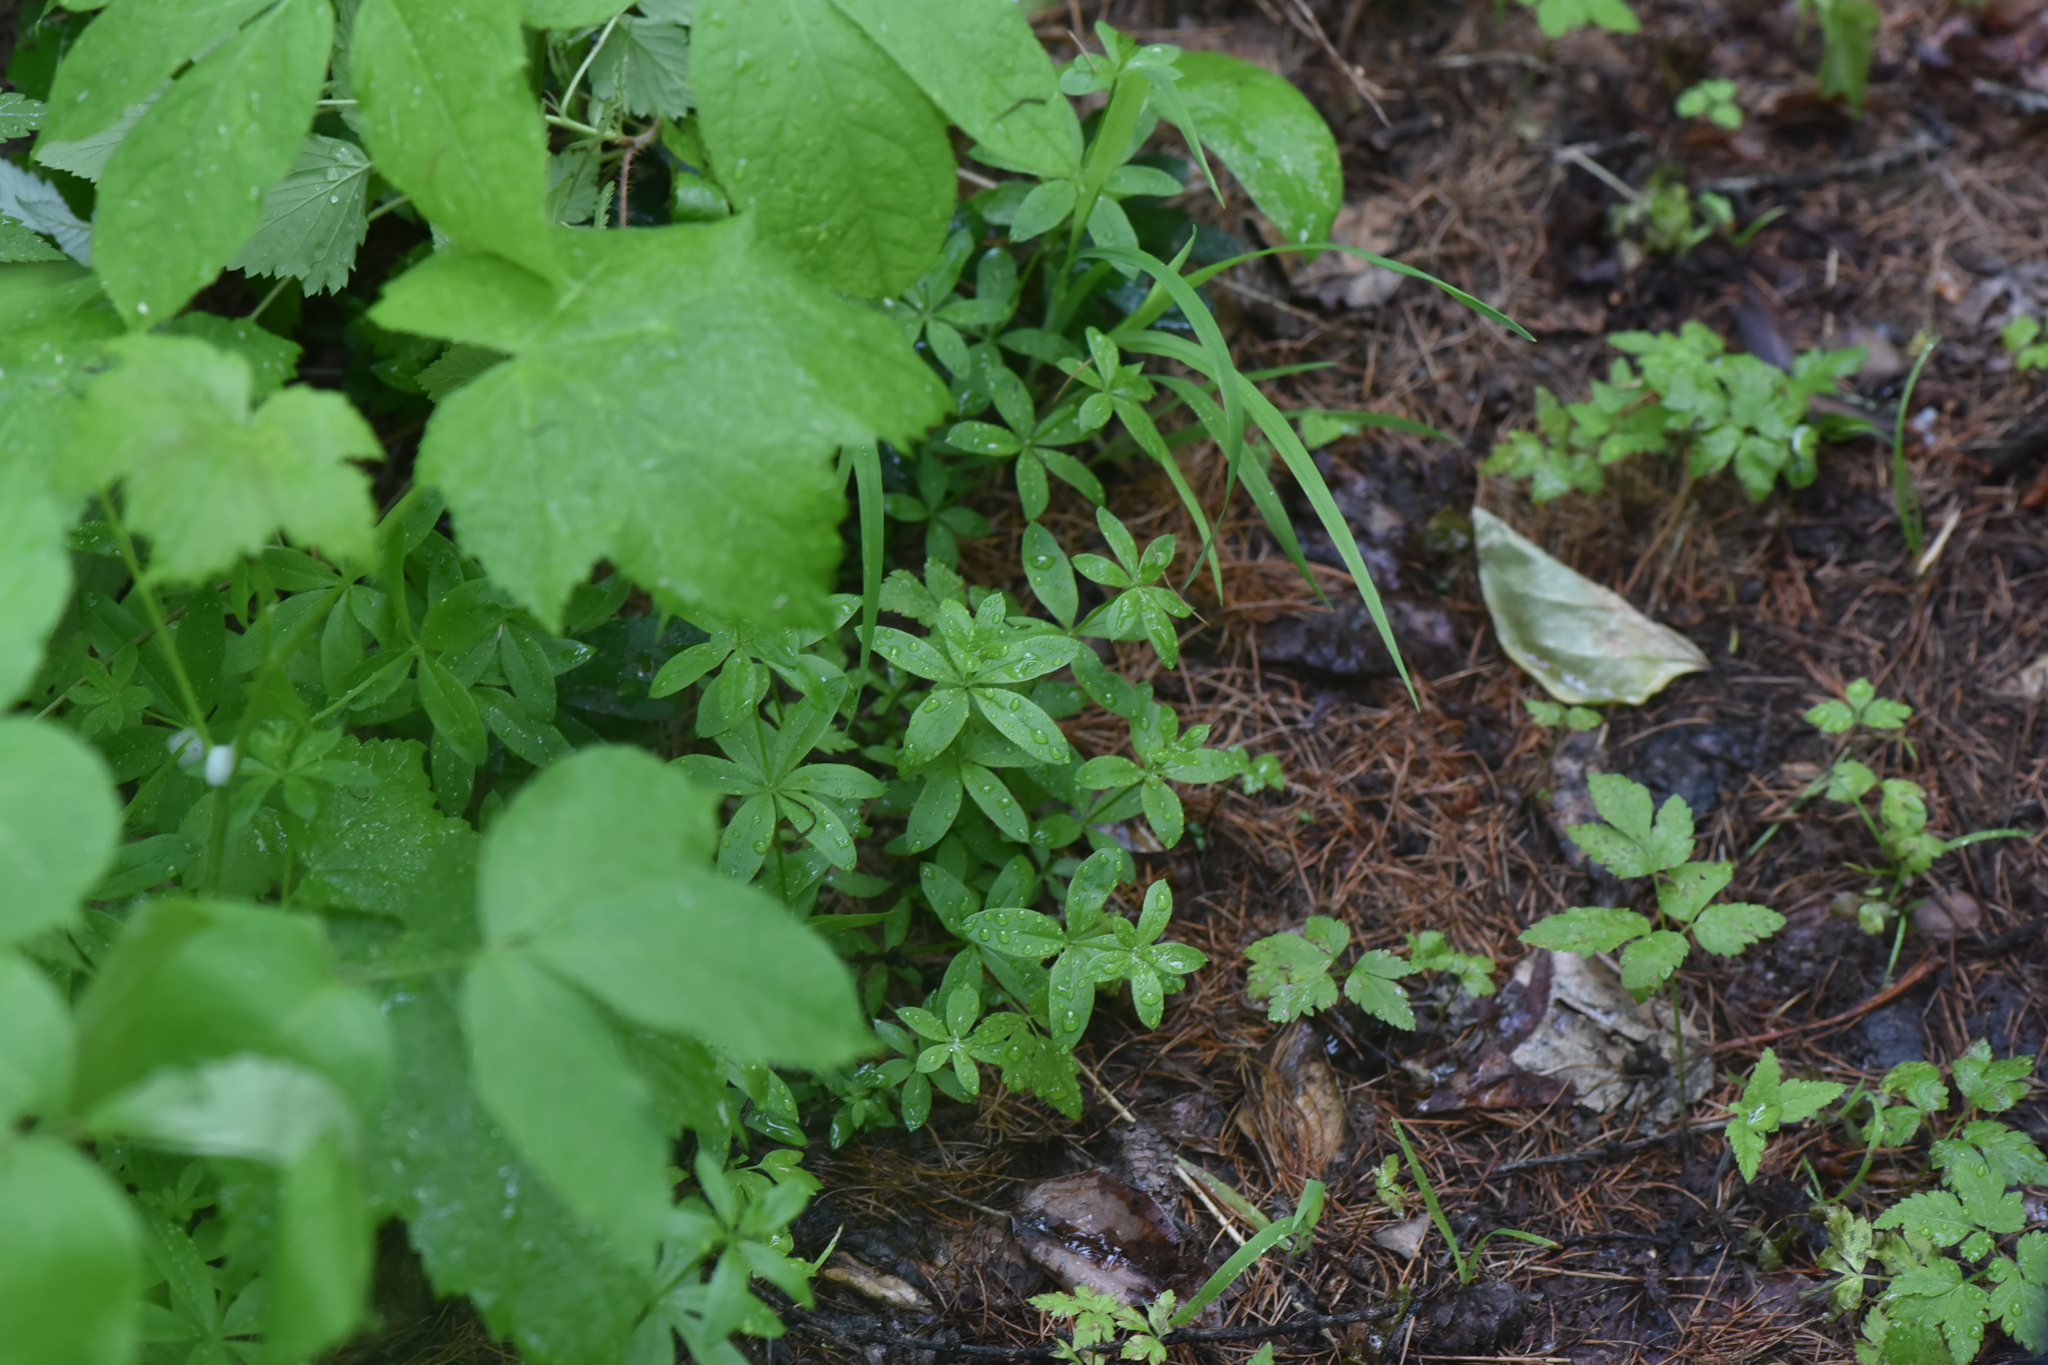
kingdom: Plantae
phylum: Tracheophyta
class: Magnoliopsida
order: Gentianales
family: Rubiaceae
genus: Galium
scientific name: Galium triflorum
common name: Fragrant bedstraw
